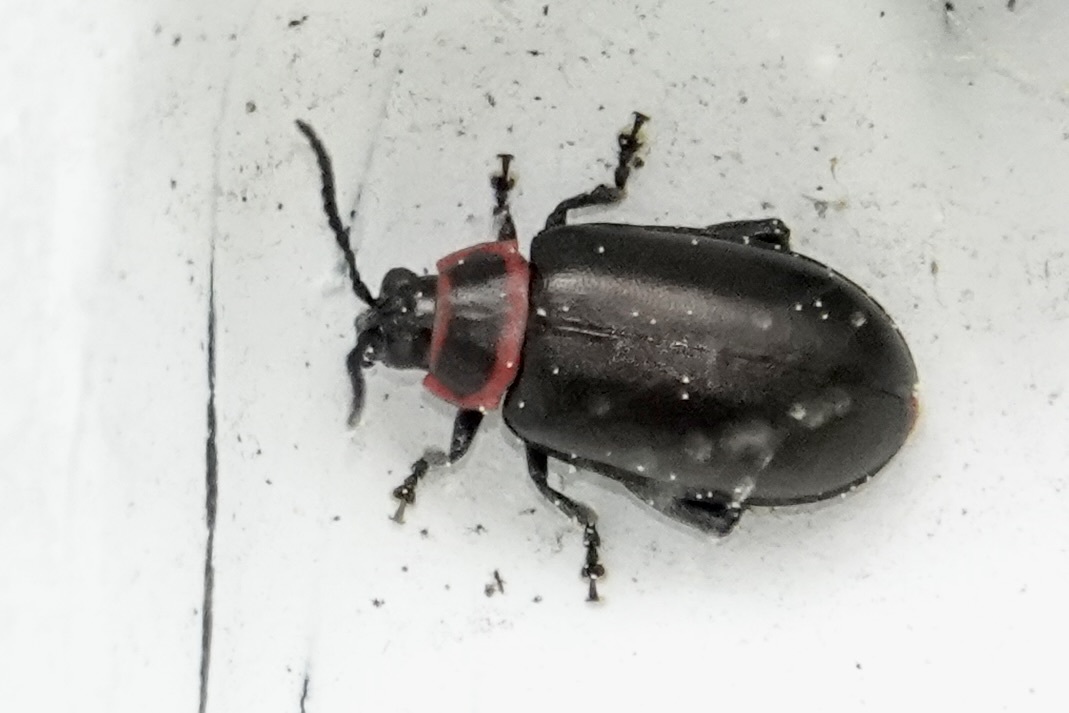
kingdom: Animalia
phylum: Arthropoda
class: Insecta
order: Coleoptera
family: Chrysomelidae
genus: Kuschelina
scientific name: Kuschelina vians
